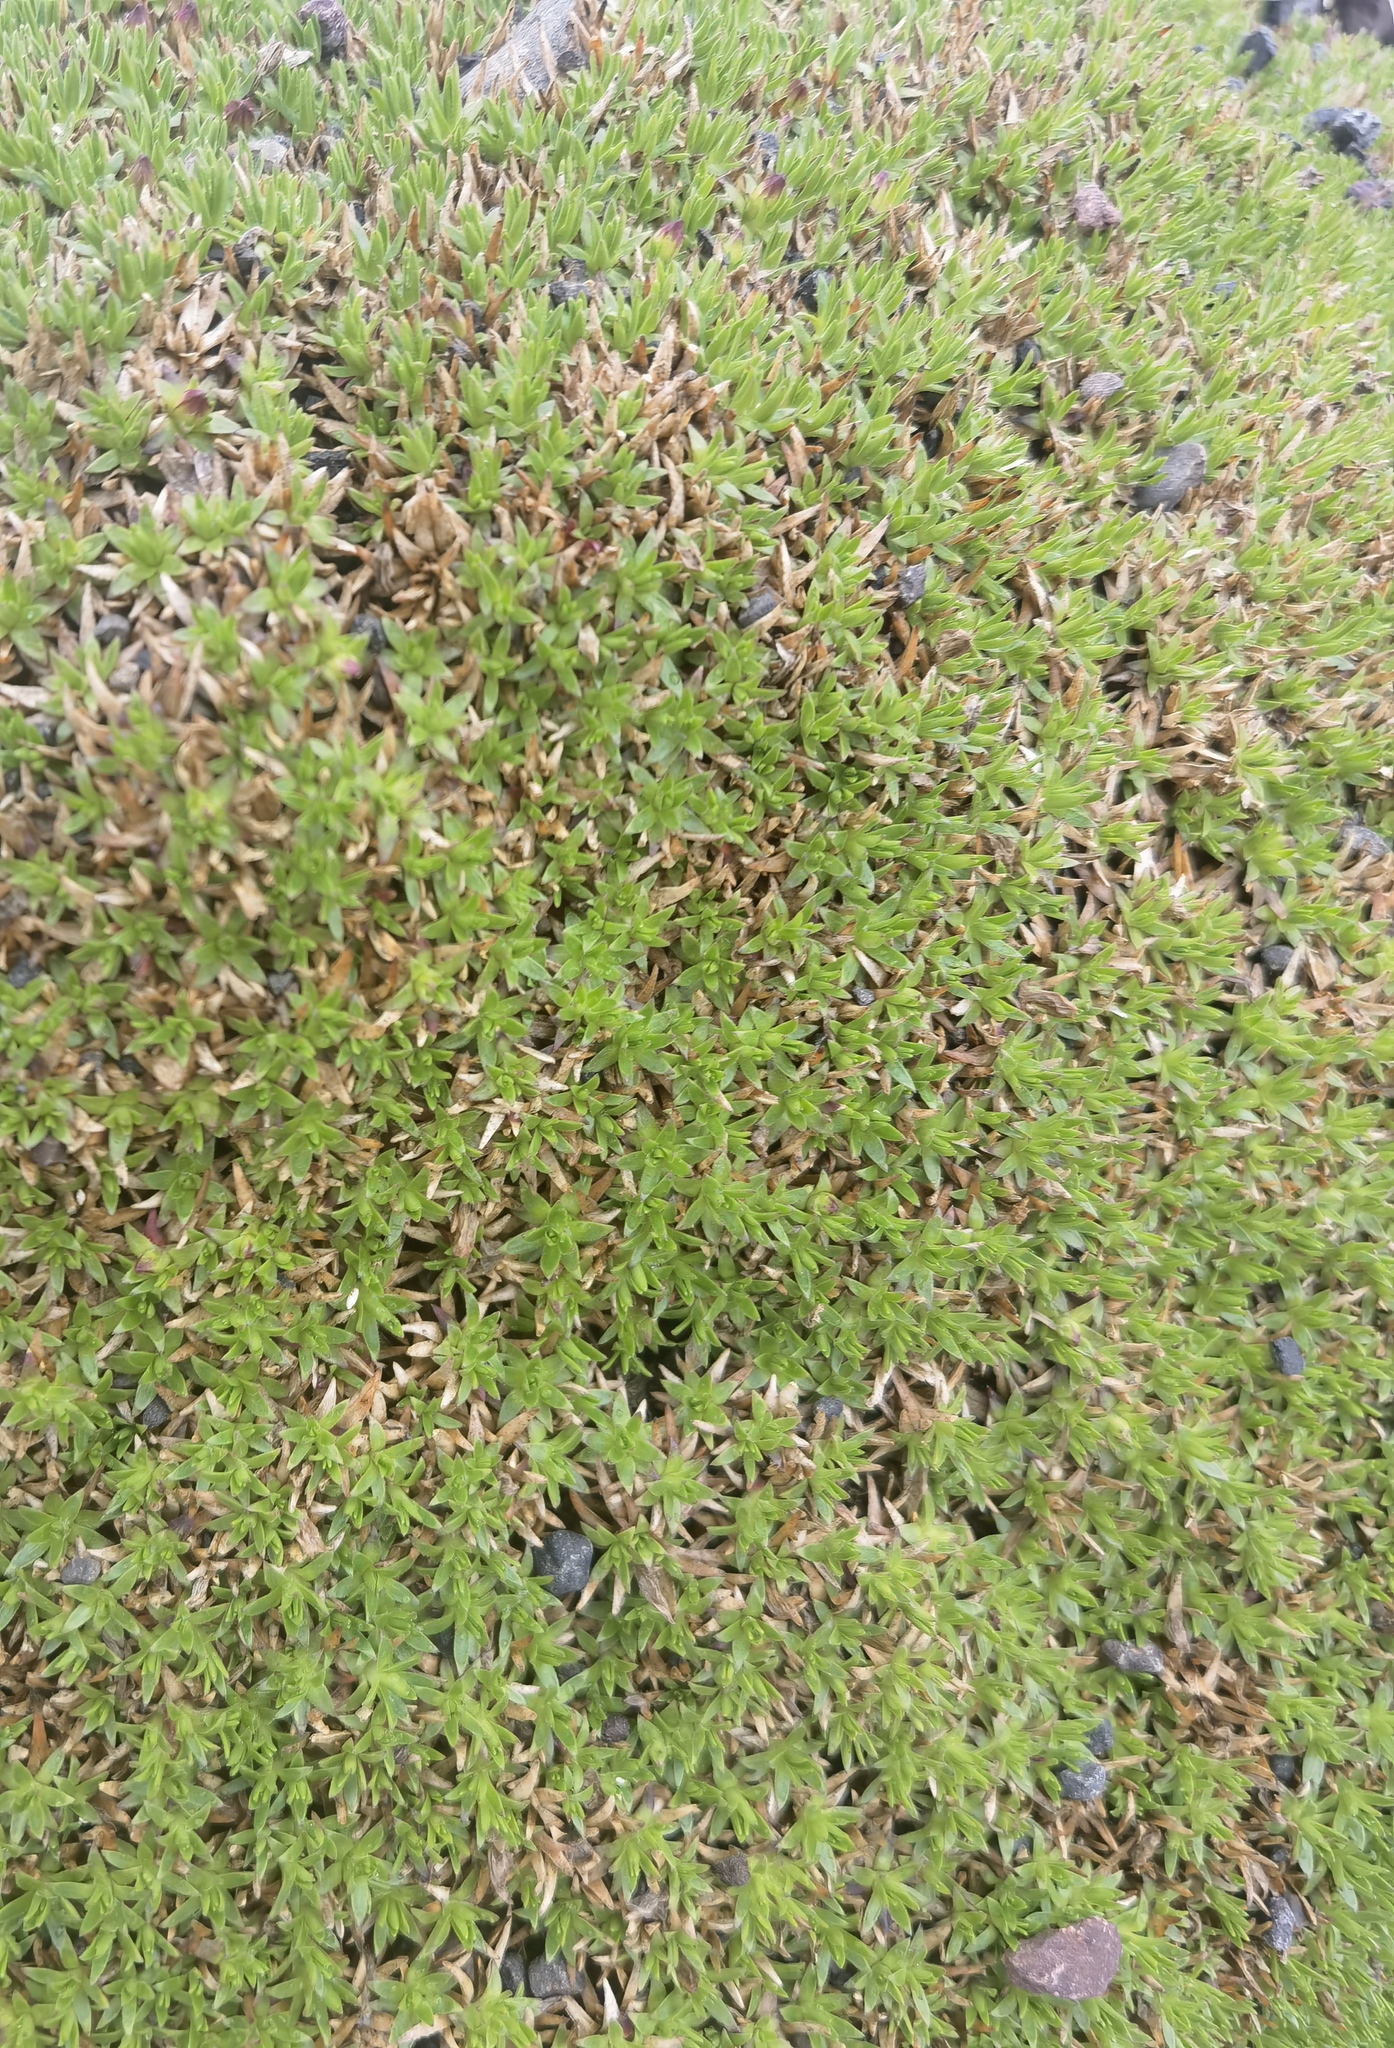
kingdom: Plantae
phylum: Tracheophyta
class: Magnoliopsida
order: Caryophyllales
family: Caryophyllaceae
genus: Silene
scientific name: Silene acaulis
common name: Moss campion
